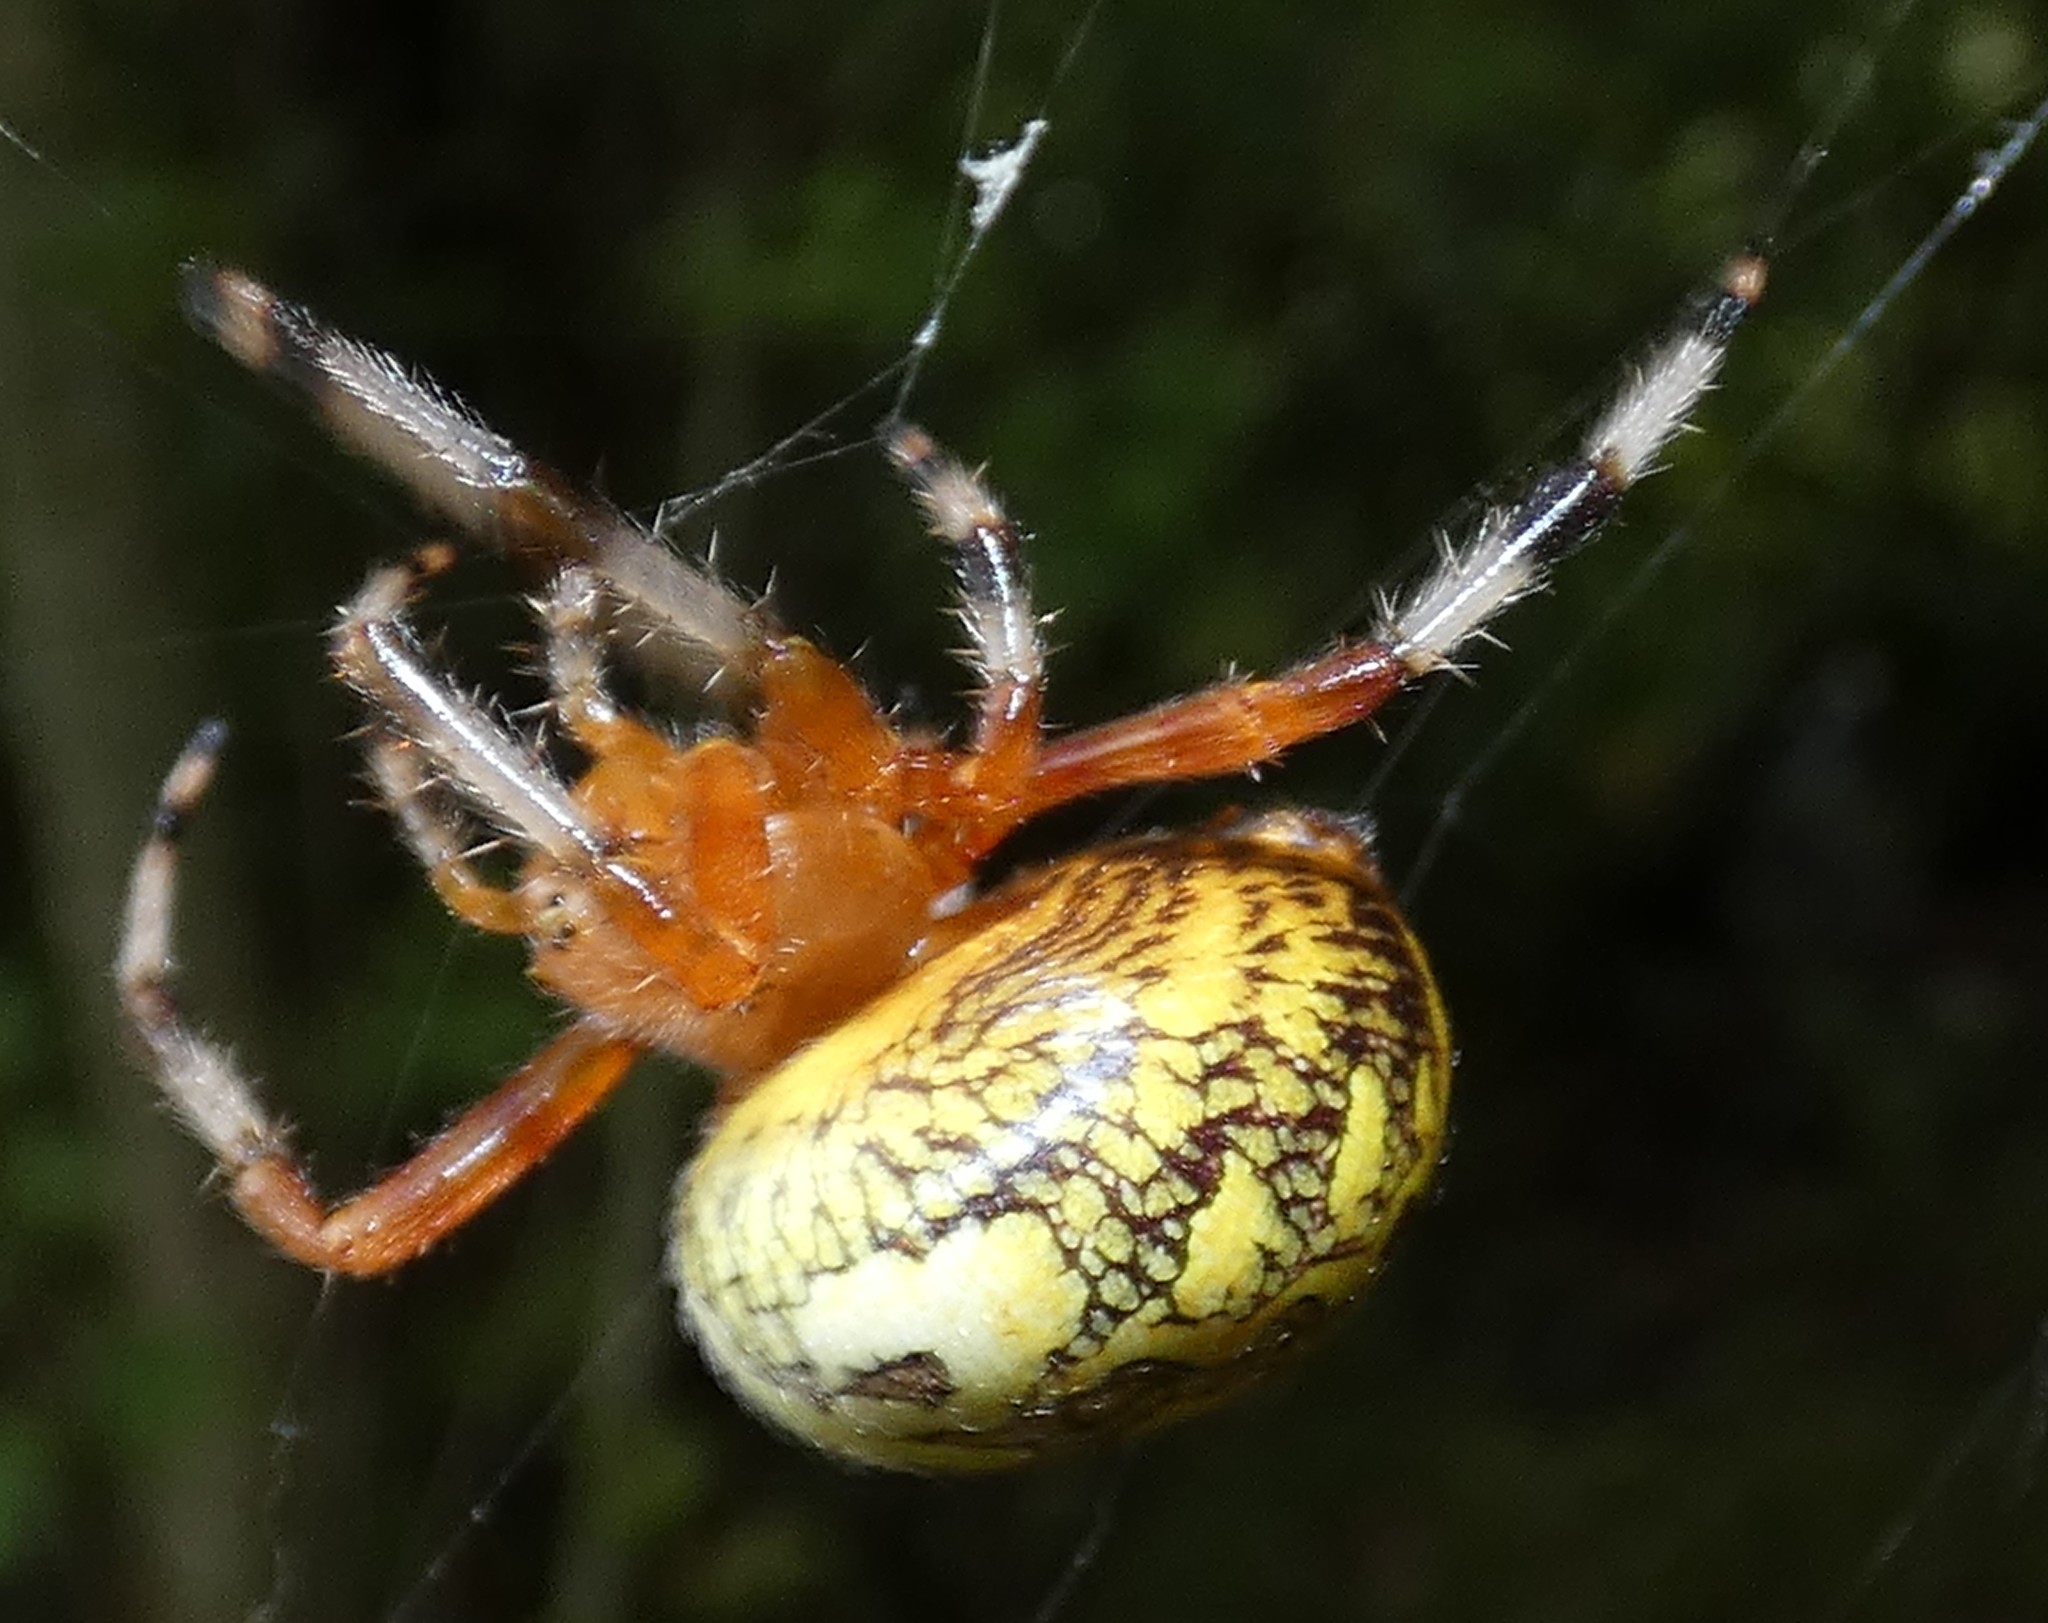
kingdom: Animalia
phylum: Arthropoda
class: Arachnida
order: Araneae
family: Araneidae
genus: Araneus
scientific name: Araneus marmoreus
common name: Marbled orbweaver
